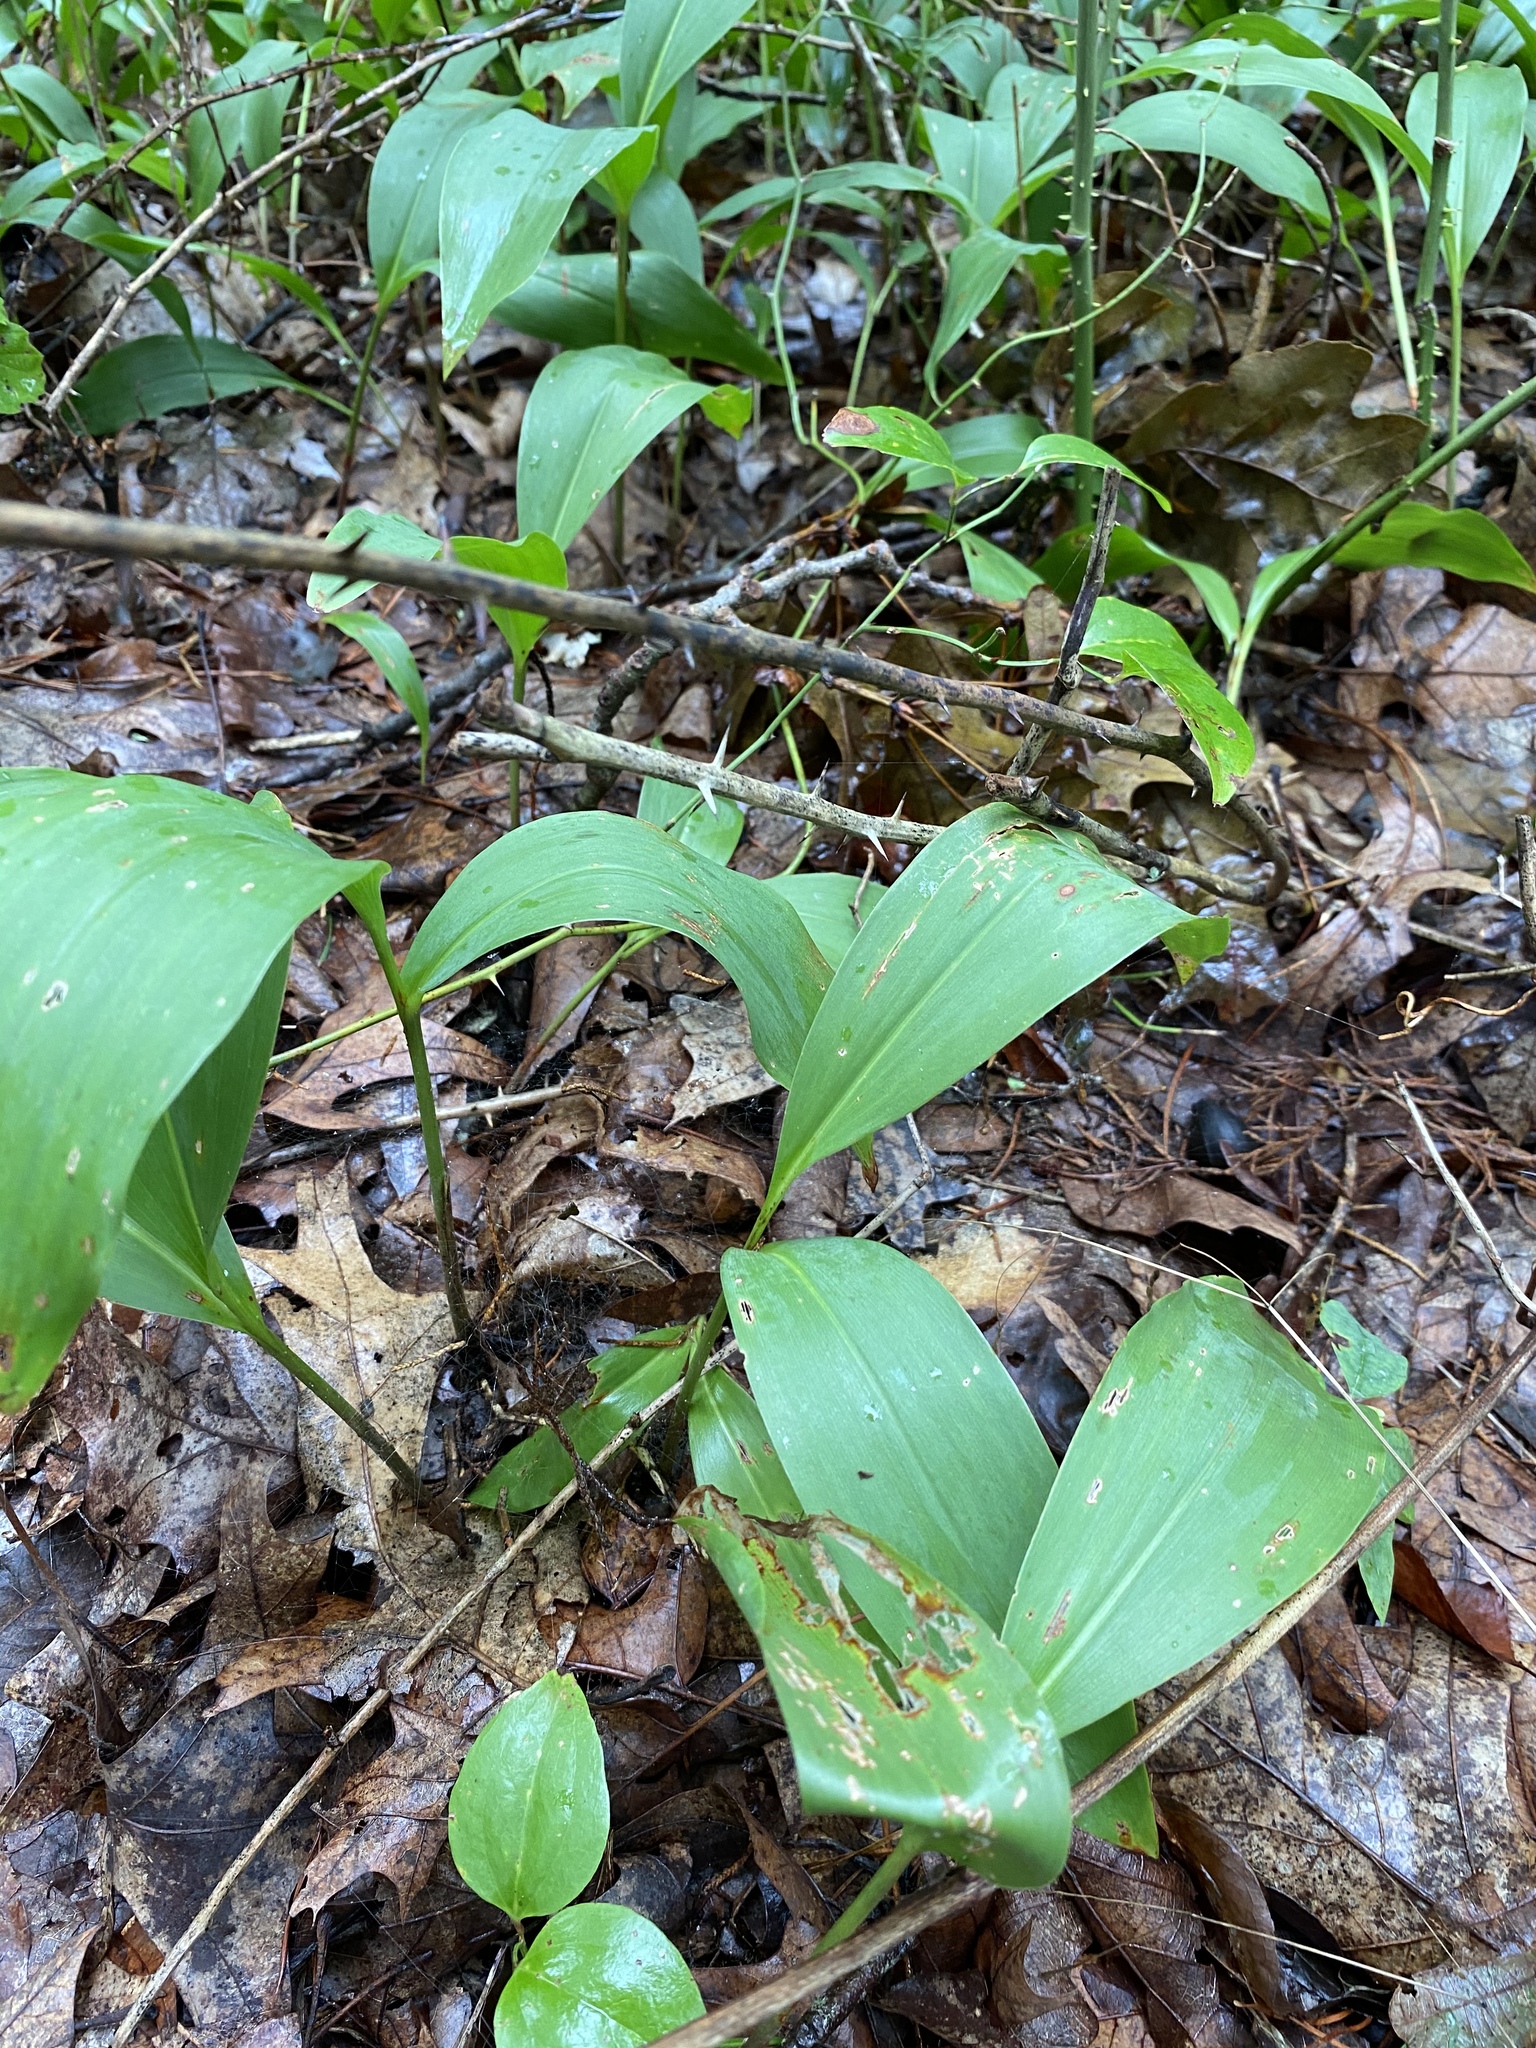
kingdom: Plantae
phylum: Tracheophyta
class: Liliopsida
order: Asparagales
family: Asparagaceae
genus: Convallaria
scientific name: Convallaria majalis
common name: Lily-of-the-valley
